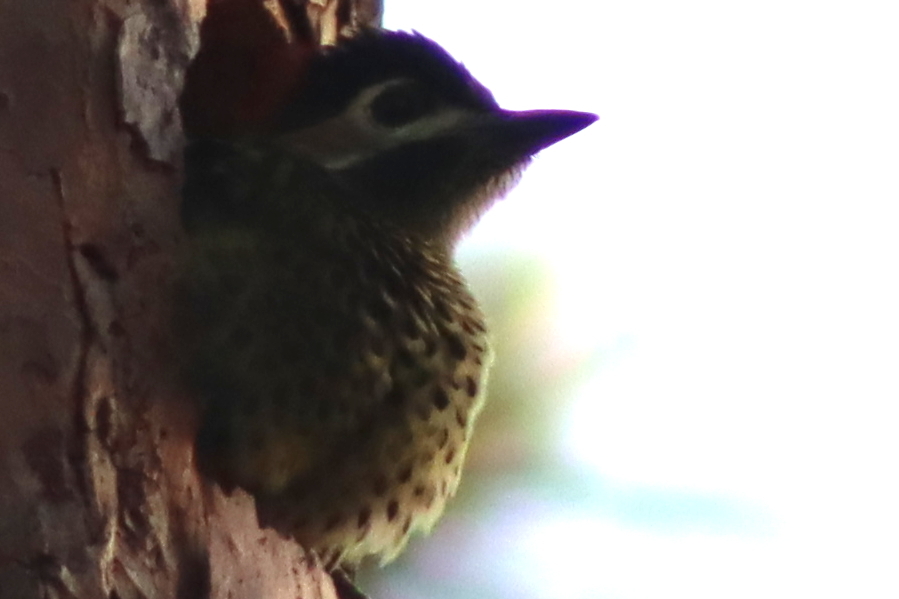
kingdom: Animalia
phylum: Chordata
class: Aves
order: Piciformes
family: Picidae
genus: Colaptes
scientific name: Colaptes melanochloros
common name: Green-barred woodpecker
